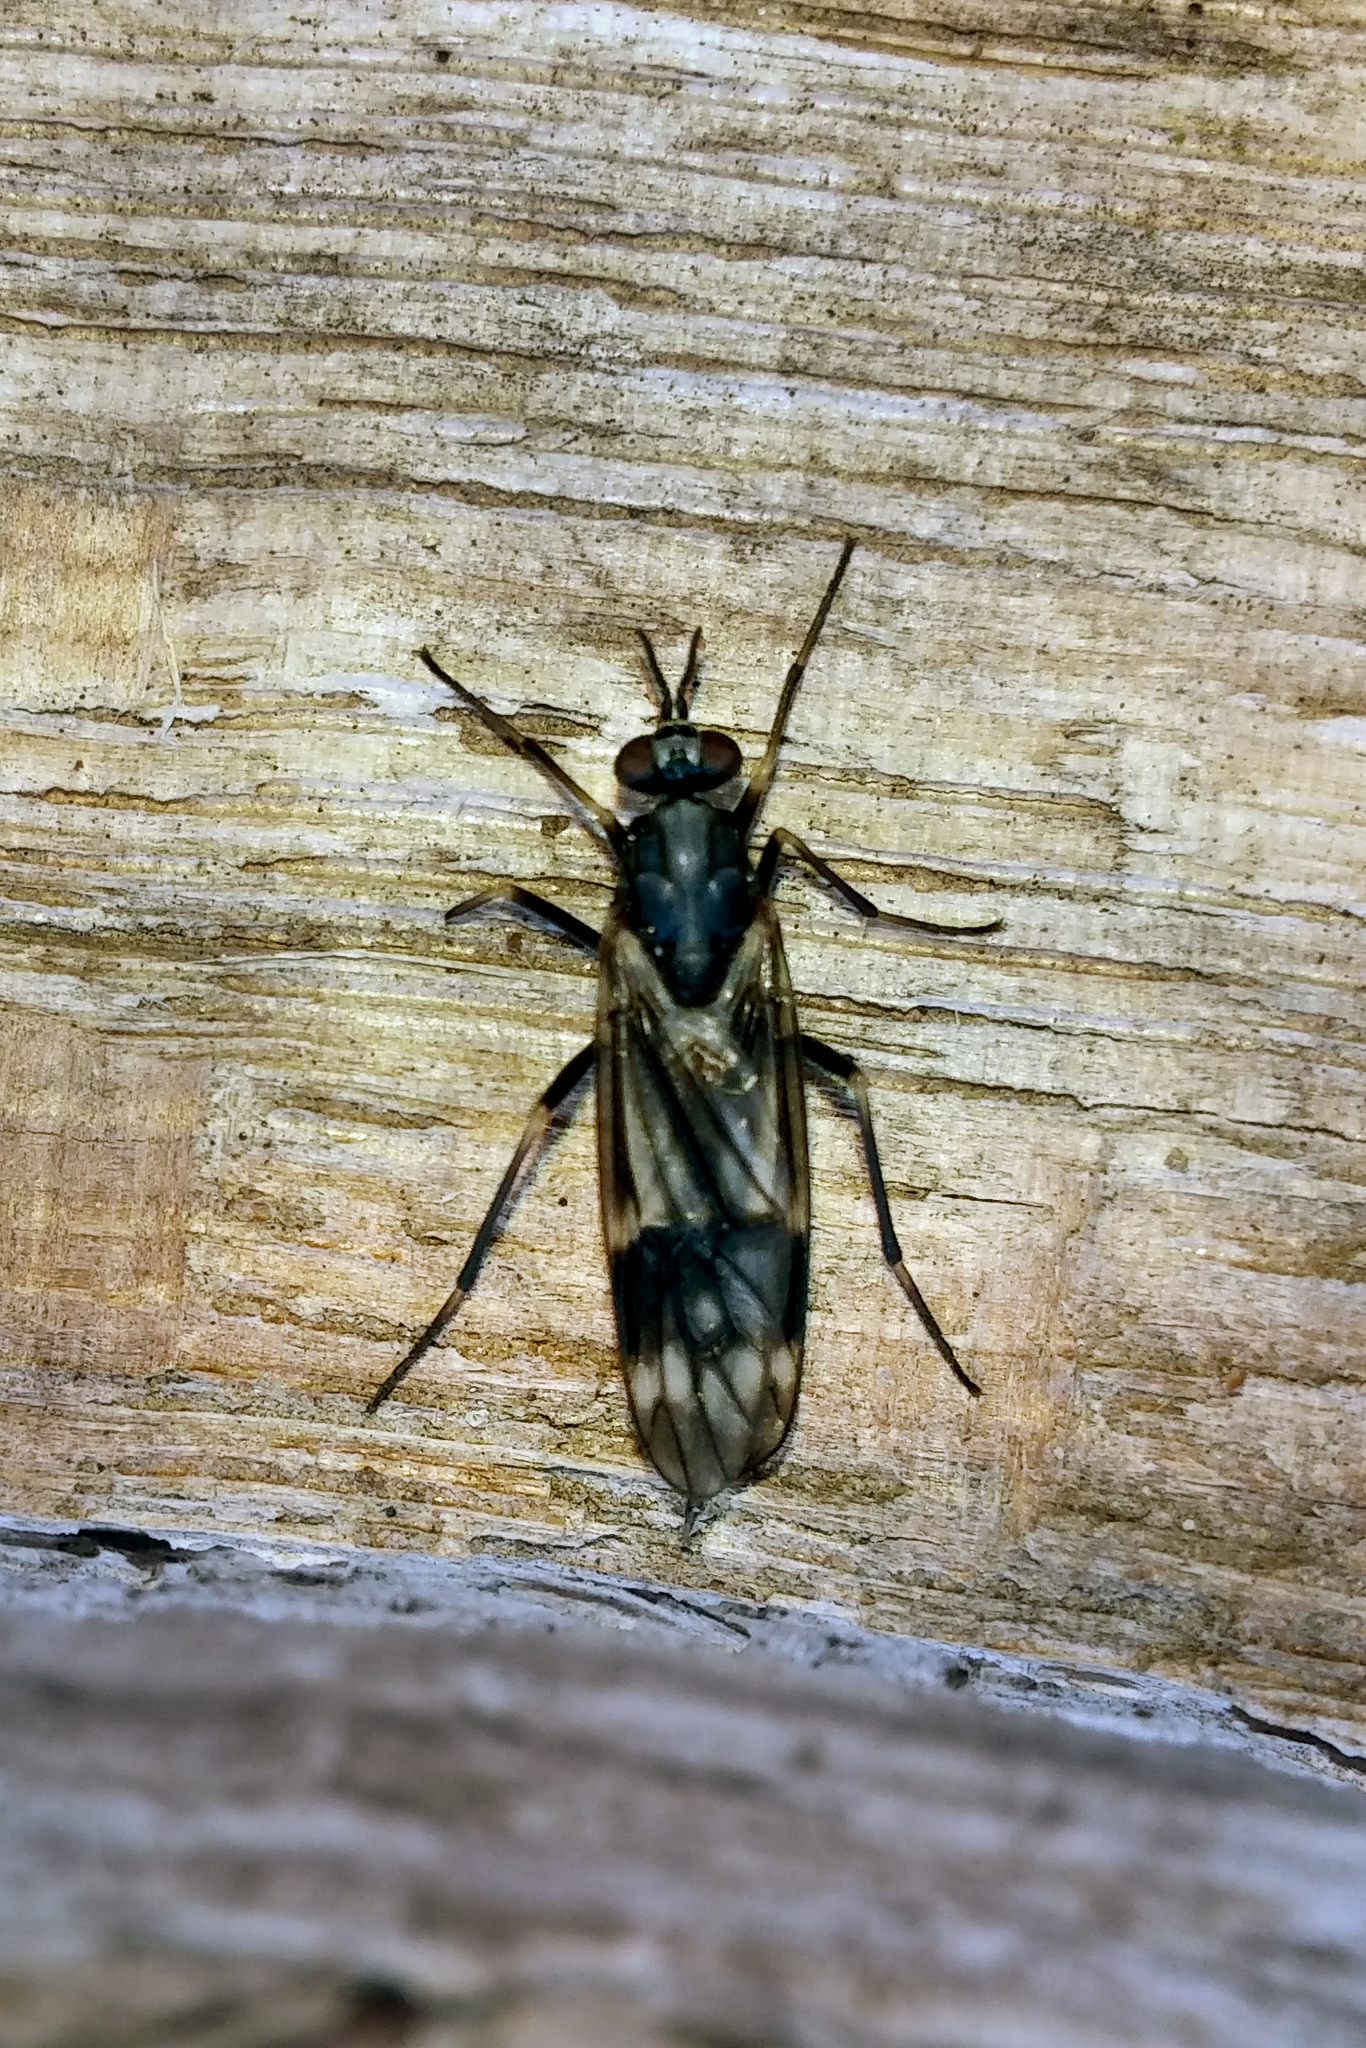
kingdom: Animalia
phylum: Arthropoda
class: Insecta
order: Diptera
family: Xylophagidae
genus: Xylophagus
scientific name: Xylophagus lugens
